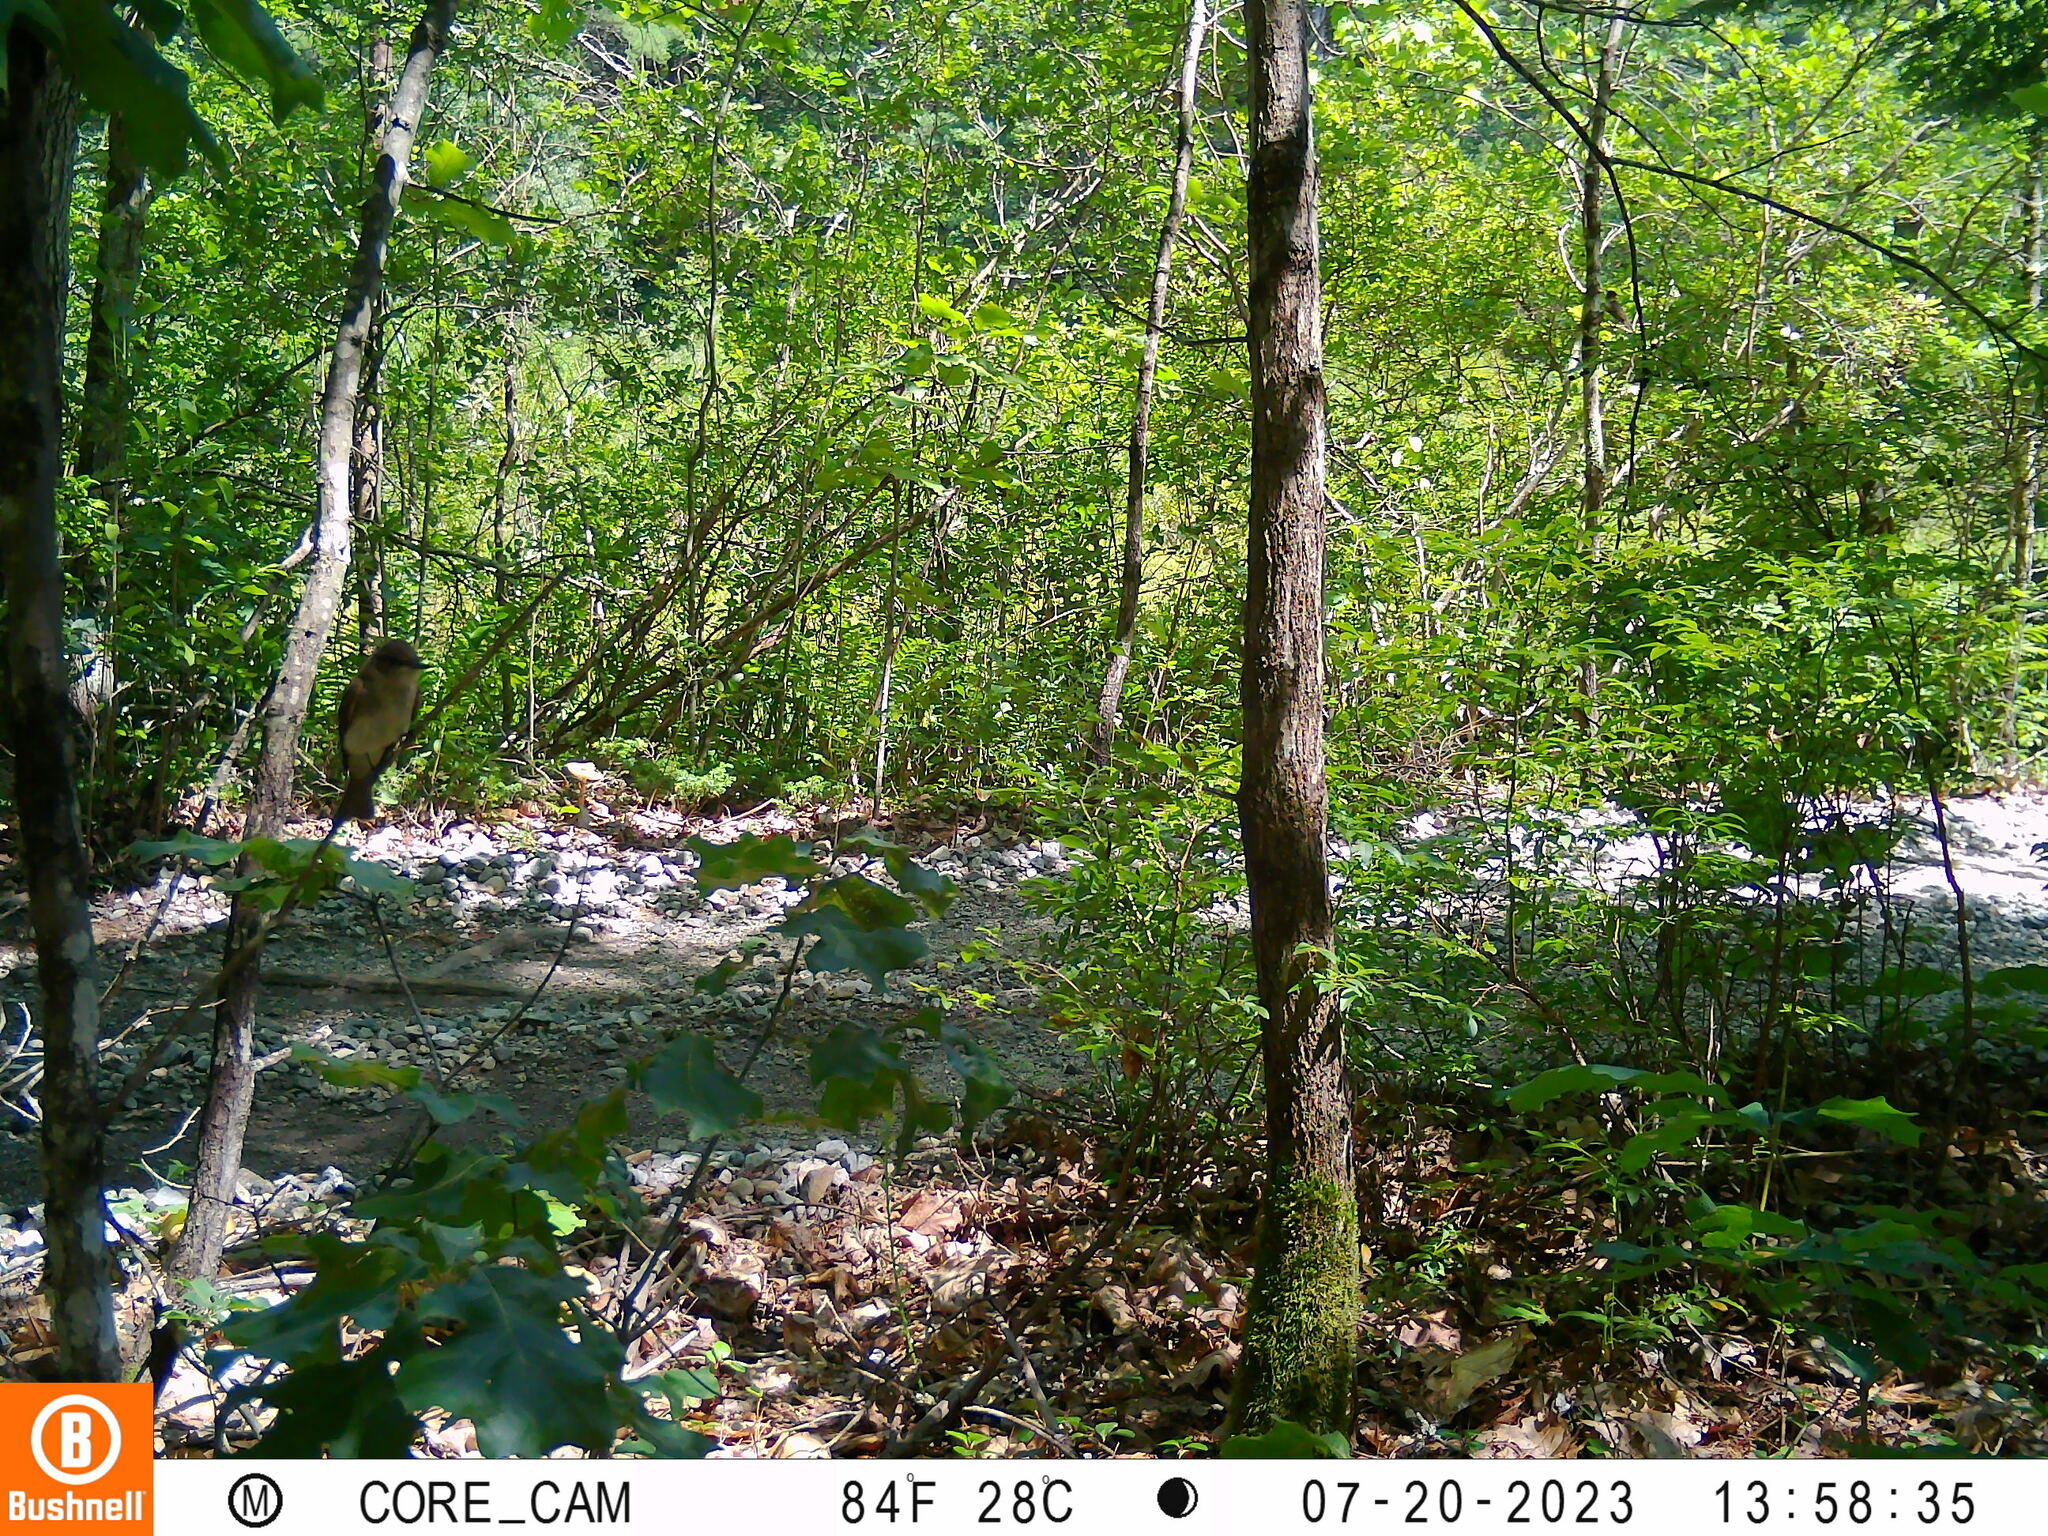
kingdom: Animalia
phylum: Chordata
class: Aves
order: Passeriformes
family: Tyrannidae
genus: Sayornis
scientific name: Sayornis phoebe
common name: Eastern phoebe
